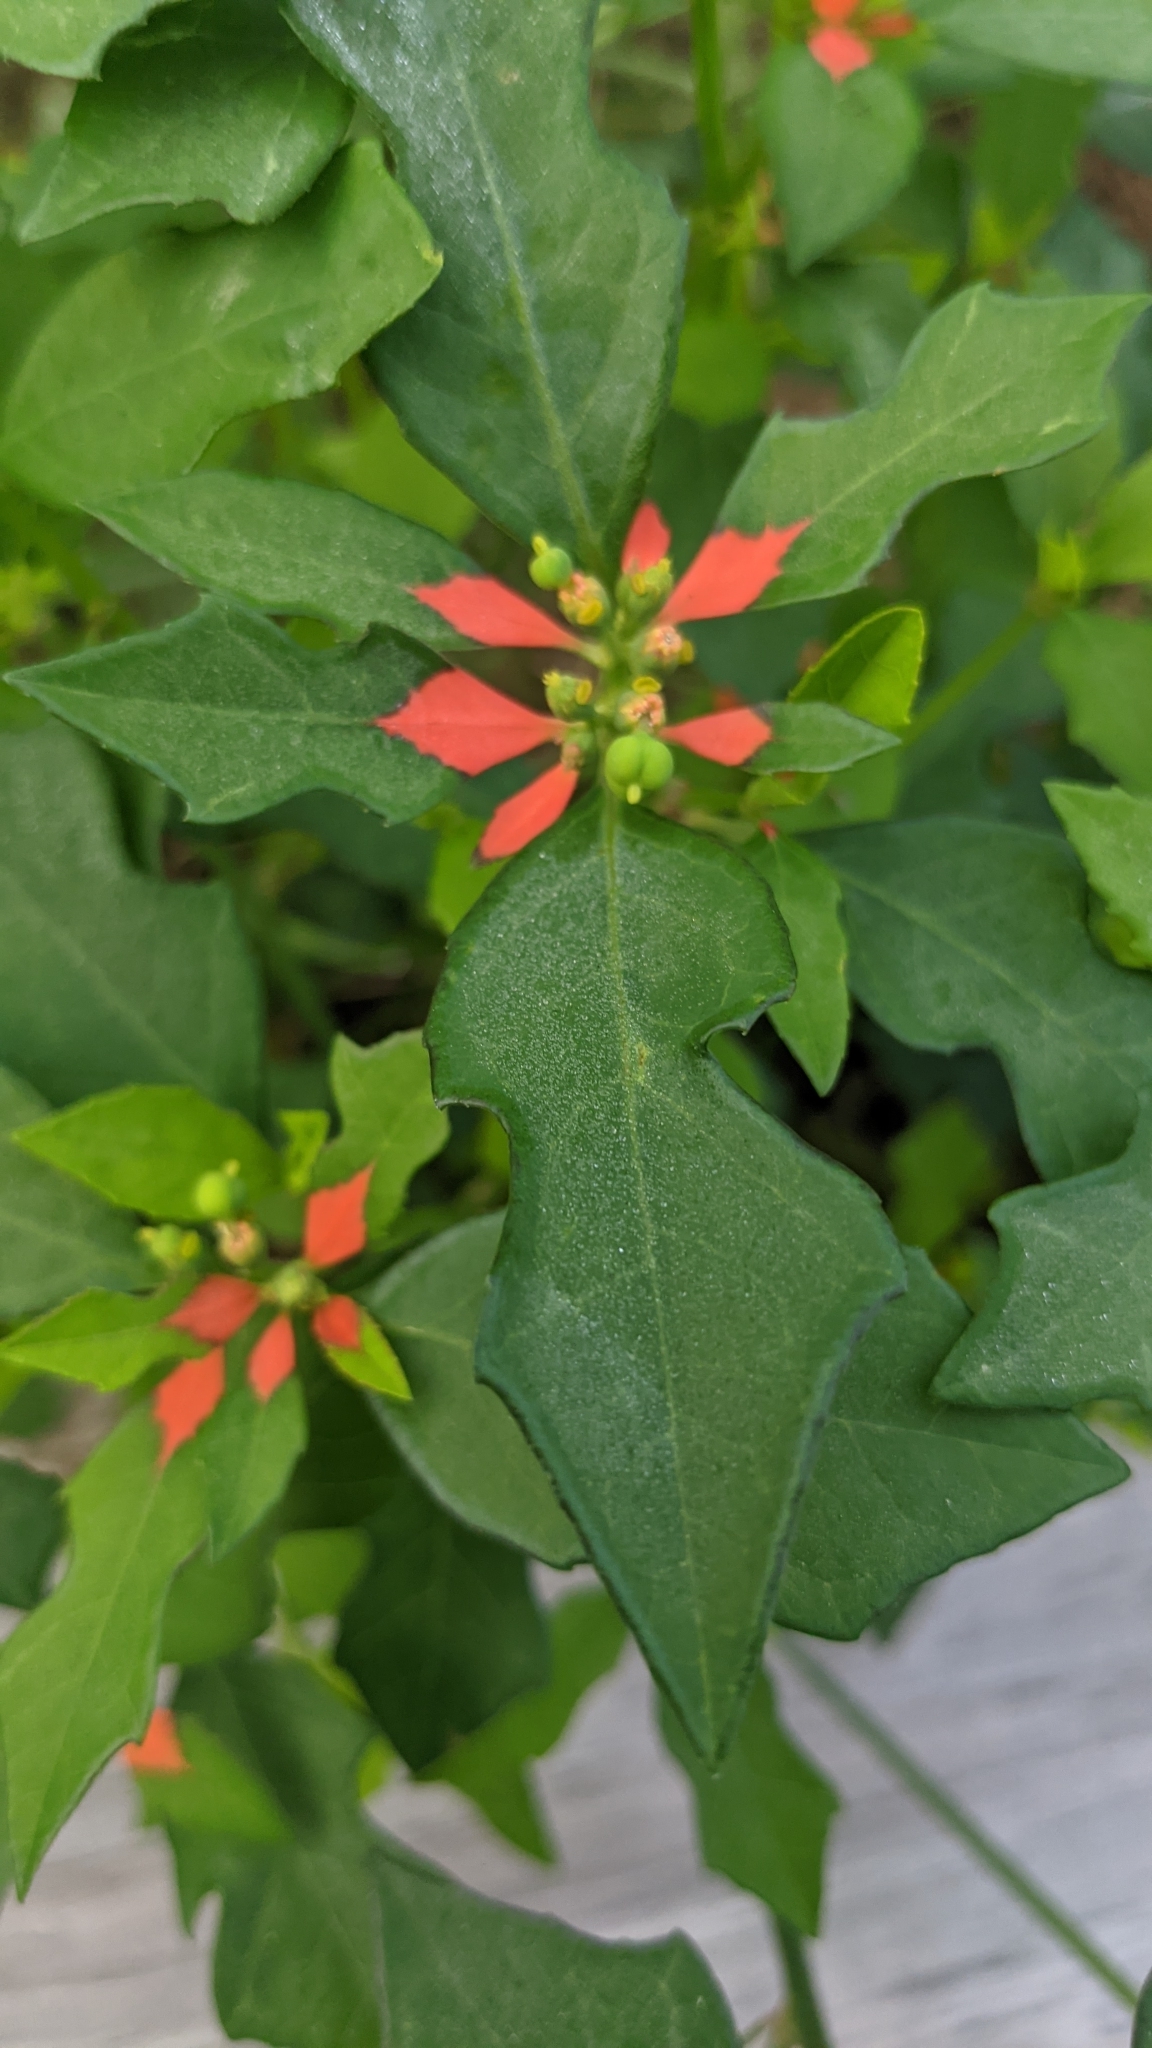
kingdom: Plantae
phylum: Tracheophyta
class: Magnoliopsida
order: Malpighiales
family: Euphorbiaceae
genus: Euphorbia
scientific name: Euphorbia heterophylla
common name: Mexican fireplant
